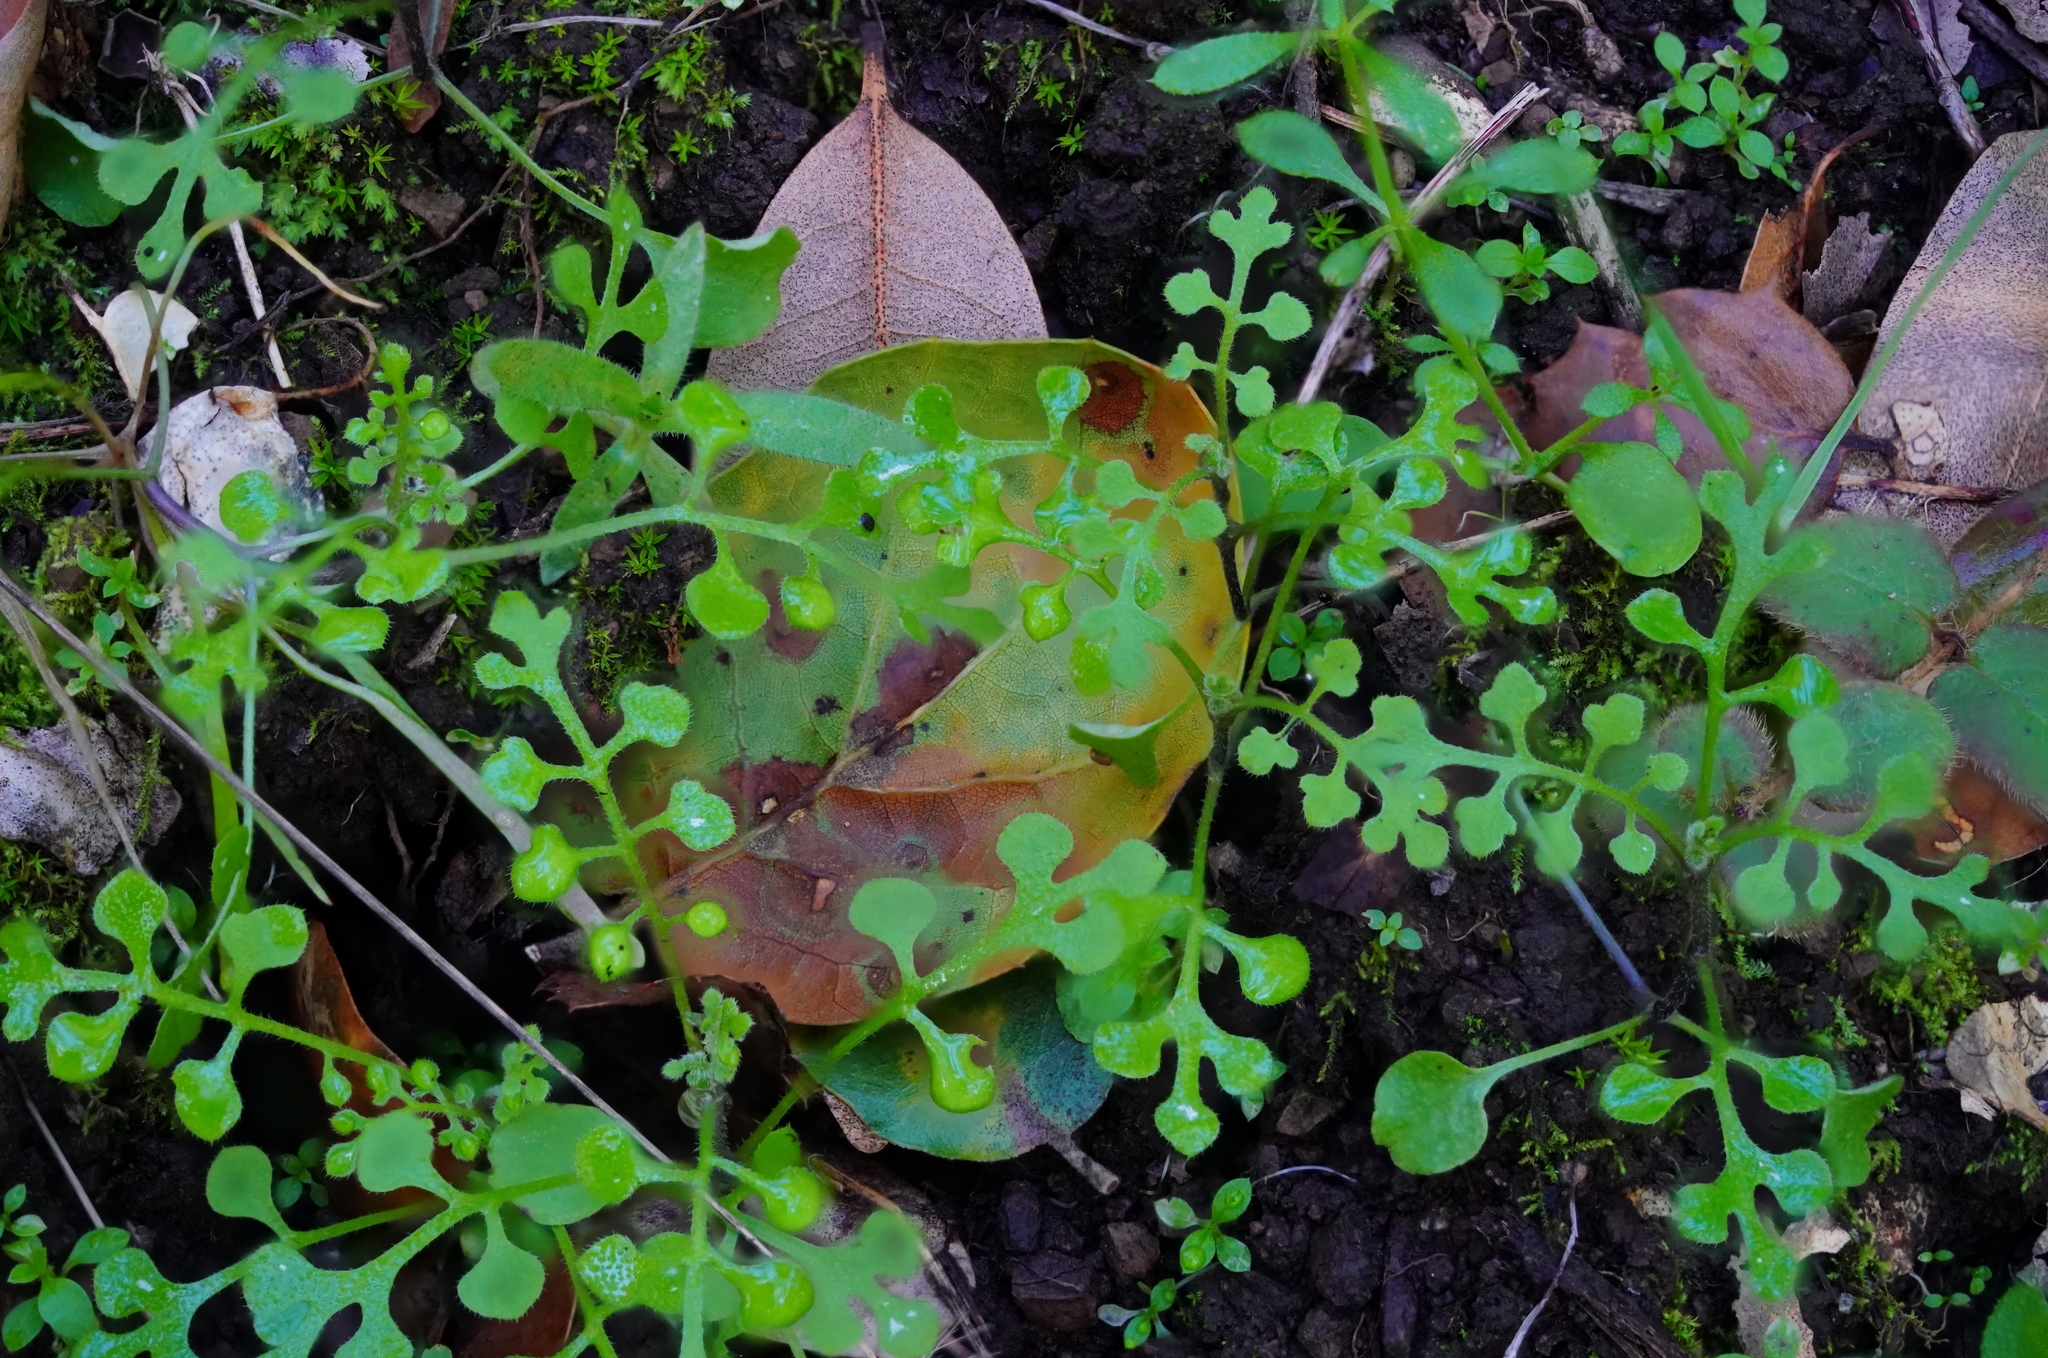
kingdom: Plantae
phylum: Tracheophyta
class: Magnoliopsida
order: Boraginales
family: Hydrophyllaceae
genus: Nemophila
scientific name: Nemophila heterophylla
